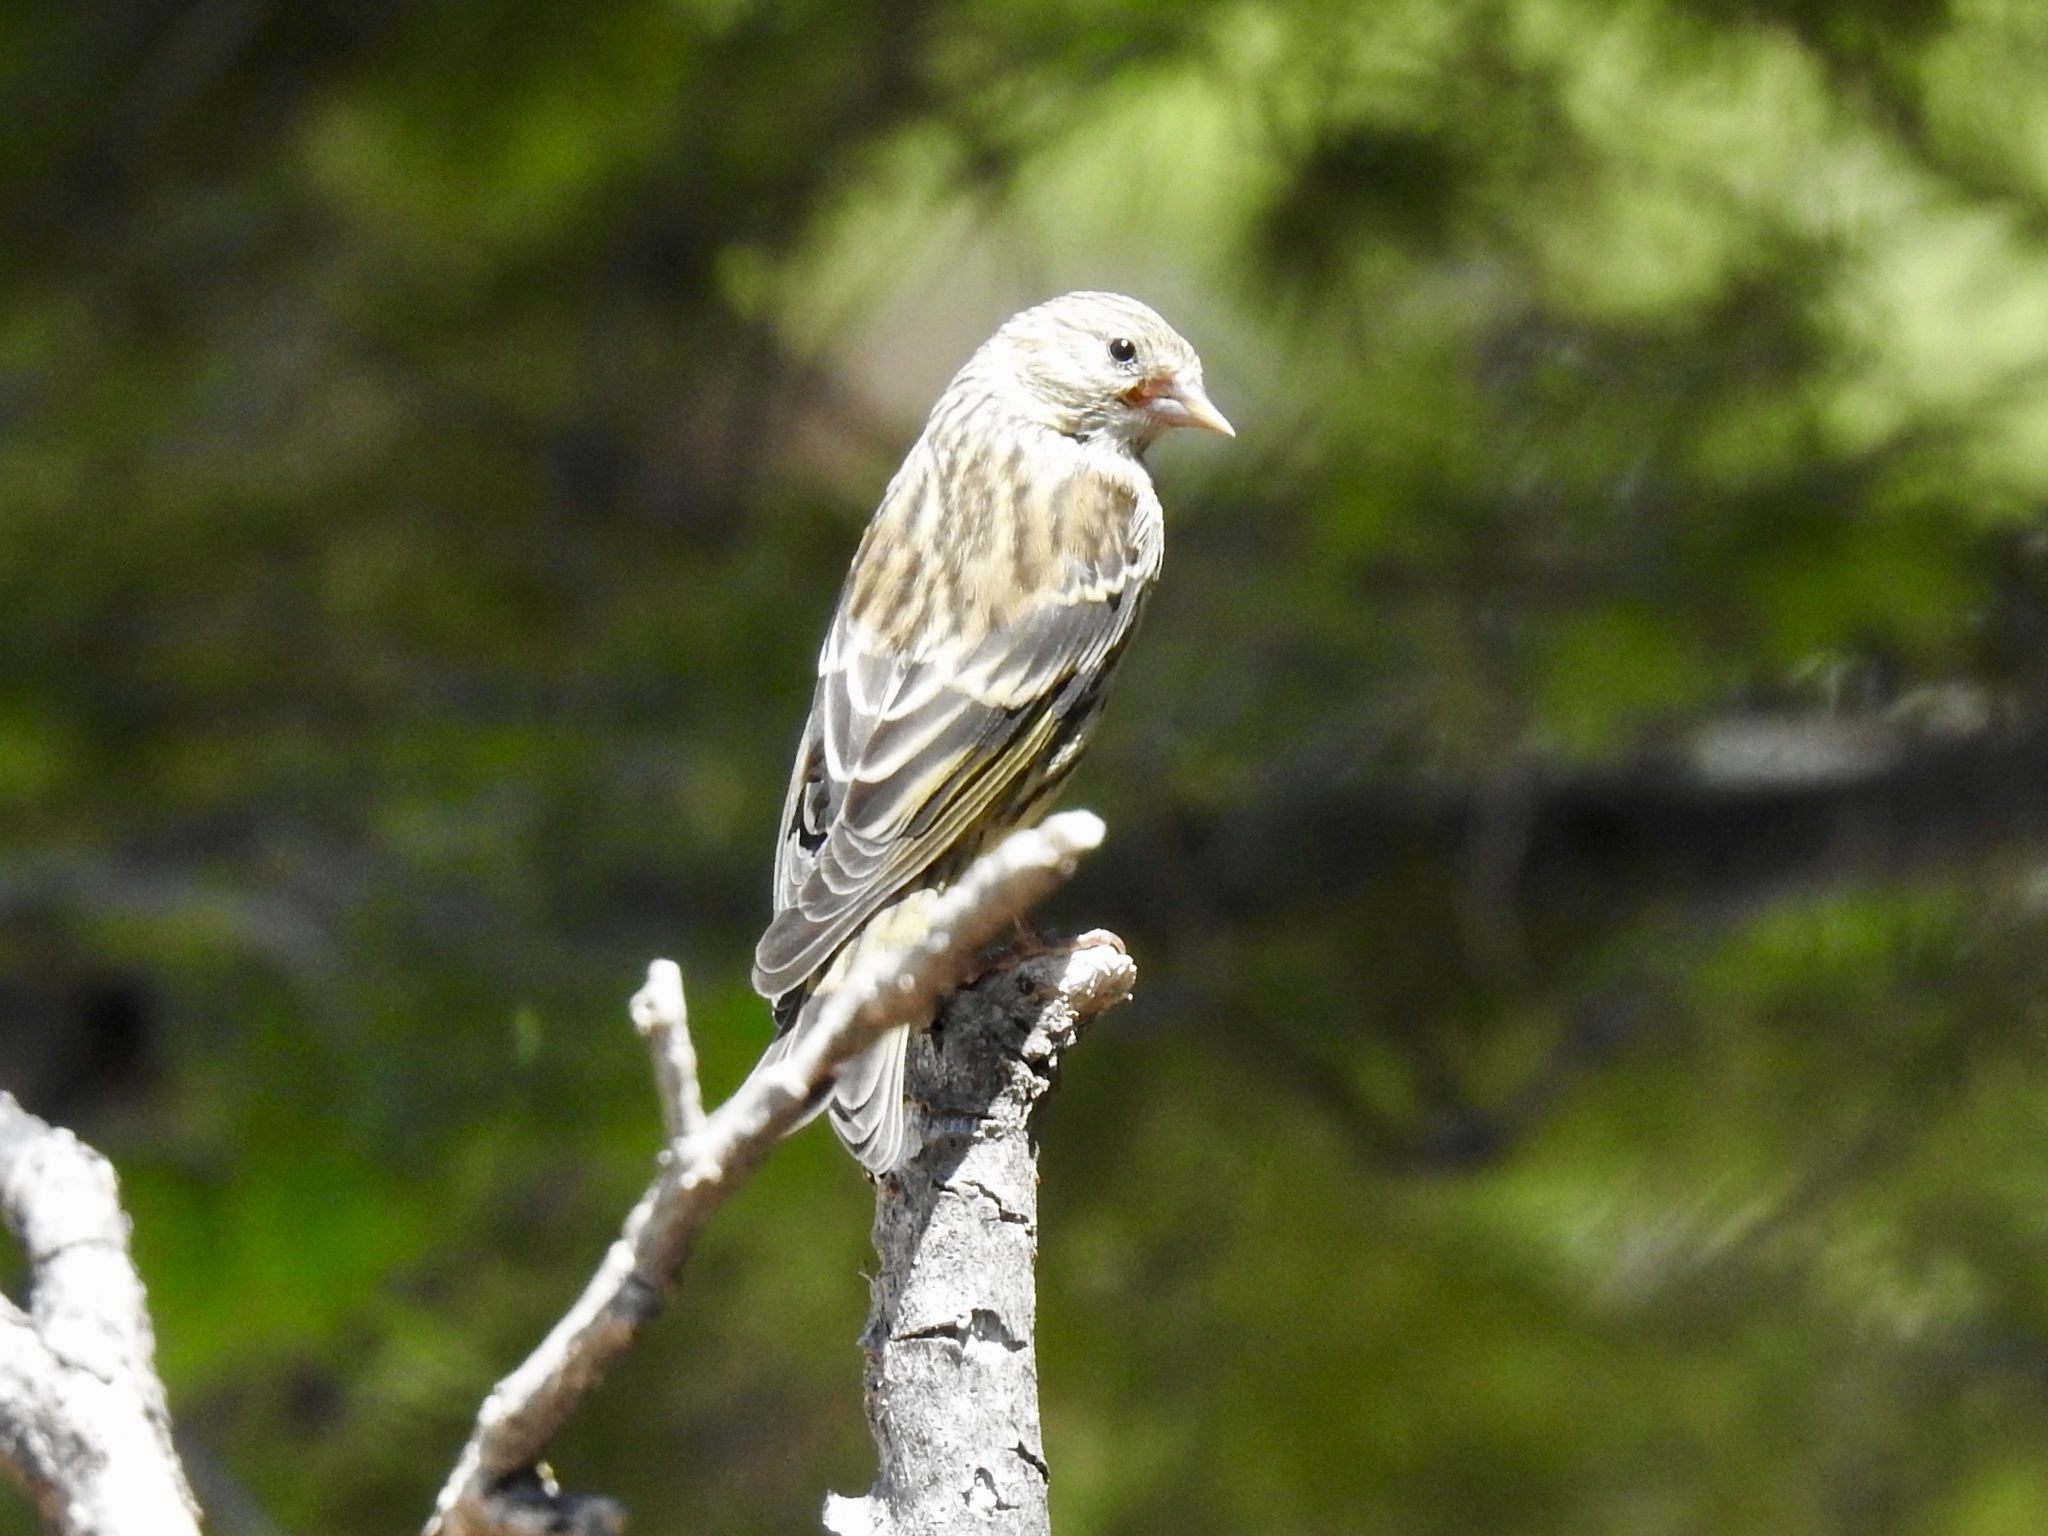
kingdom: Animalia
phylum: Chordata
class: Aves
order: Passeriformes
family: Fringillidae
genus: Spinus
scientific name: Spinus pinus
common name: Pine siskin
